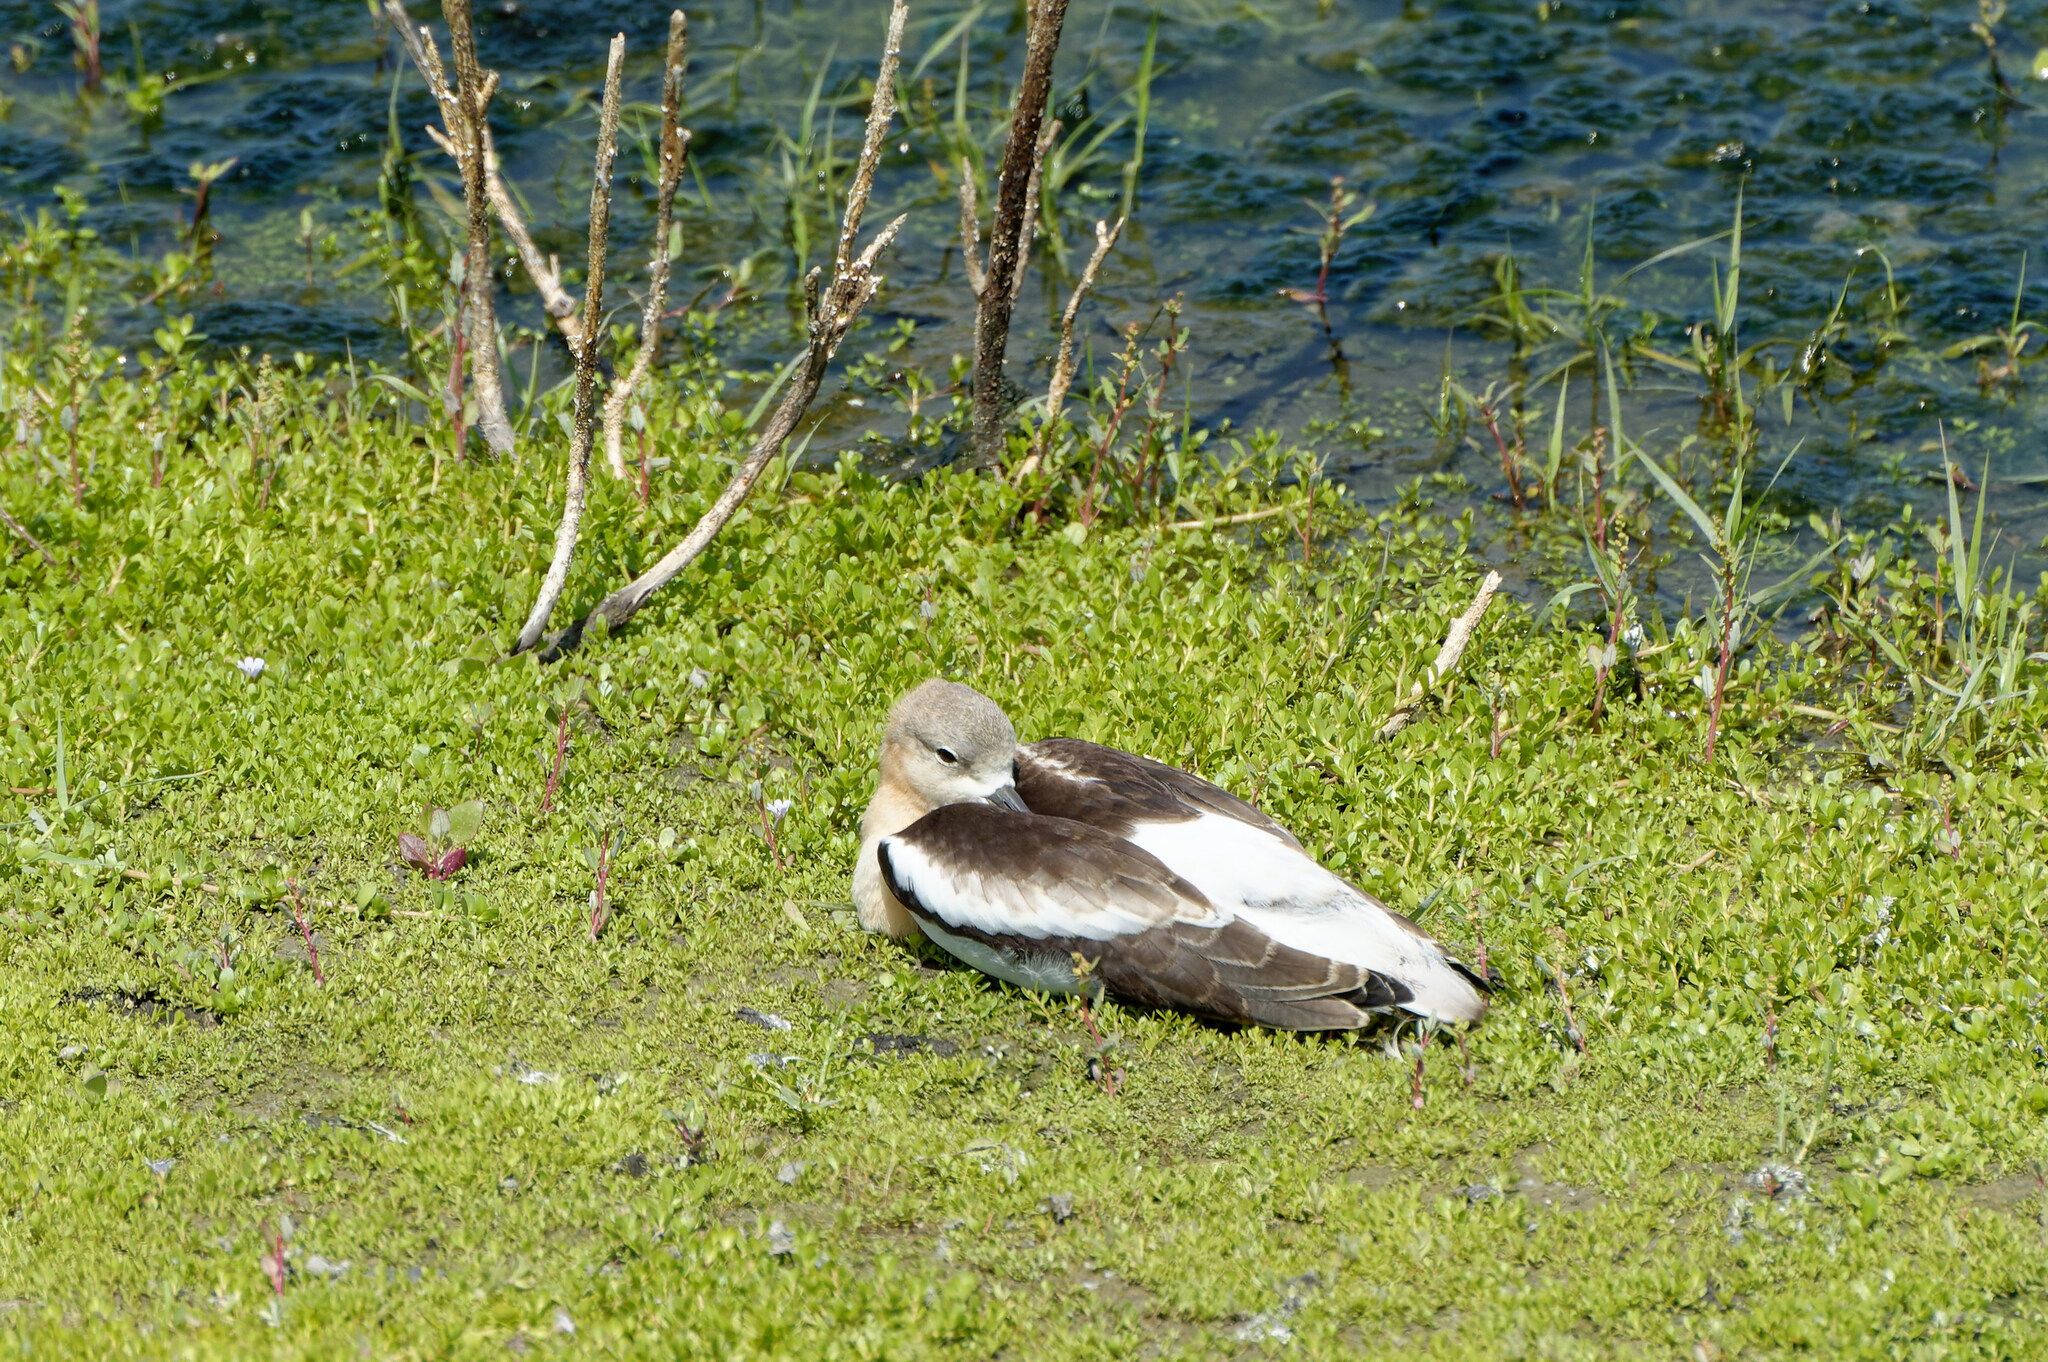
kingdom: Animalia
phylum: Chordata
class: Aves
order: Charadriiformes
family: Recurvirostridae
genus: Recurvirostra
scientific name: Recurvirostra americana
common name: American avocet
